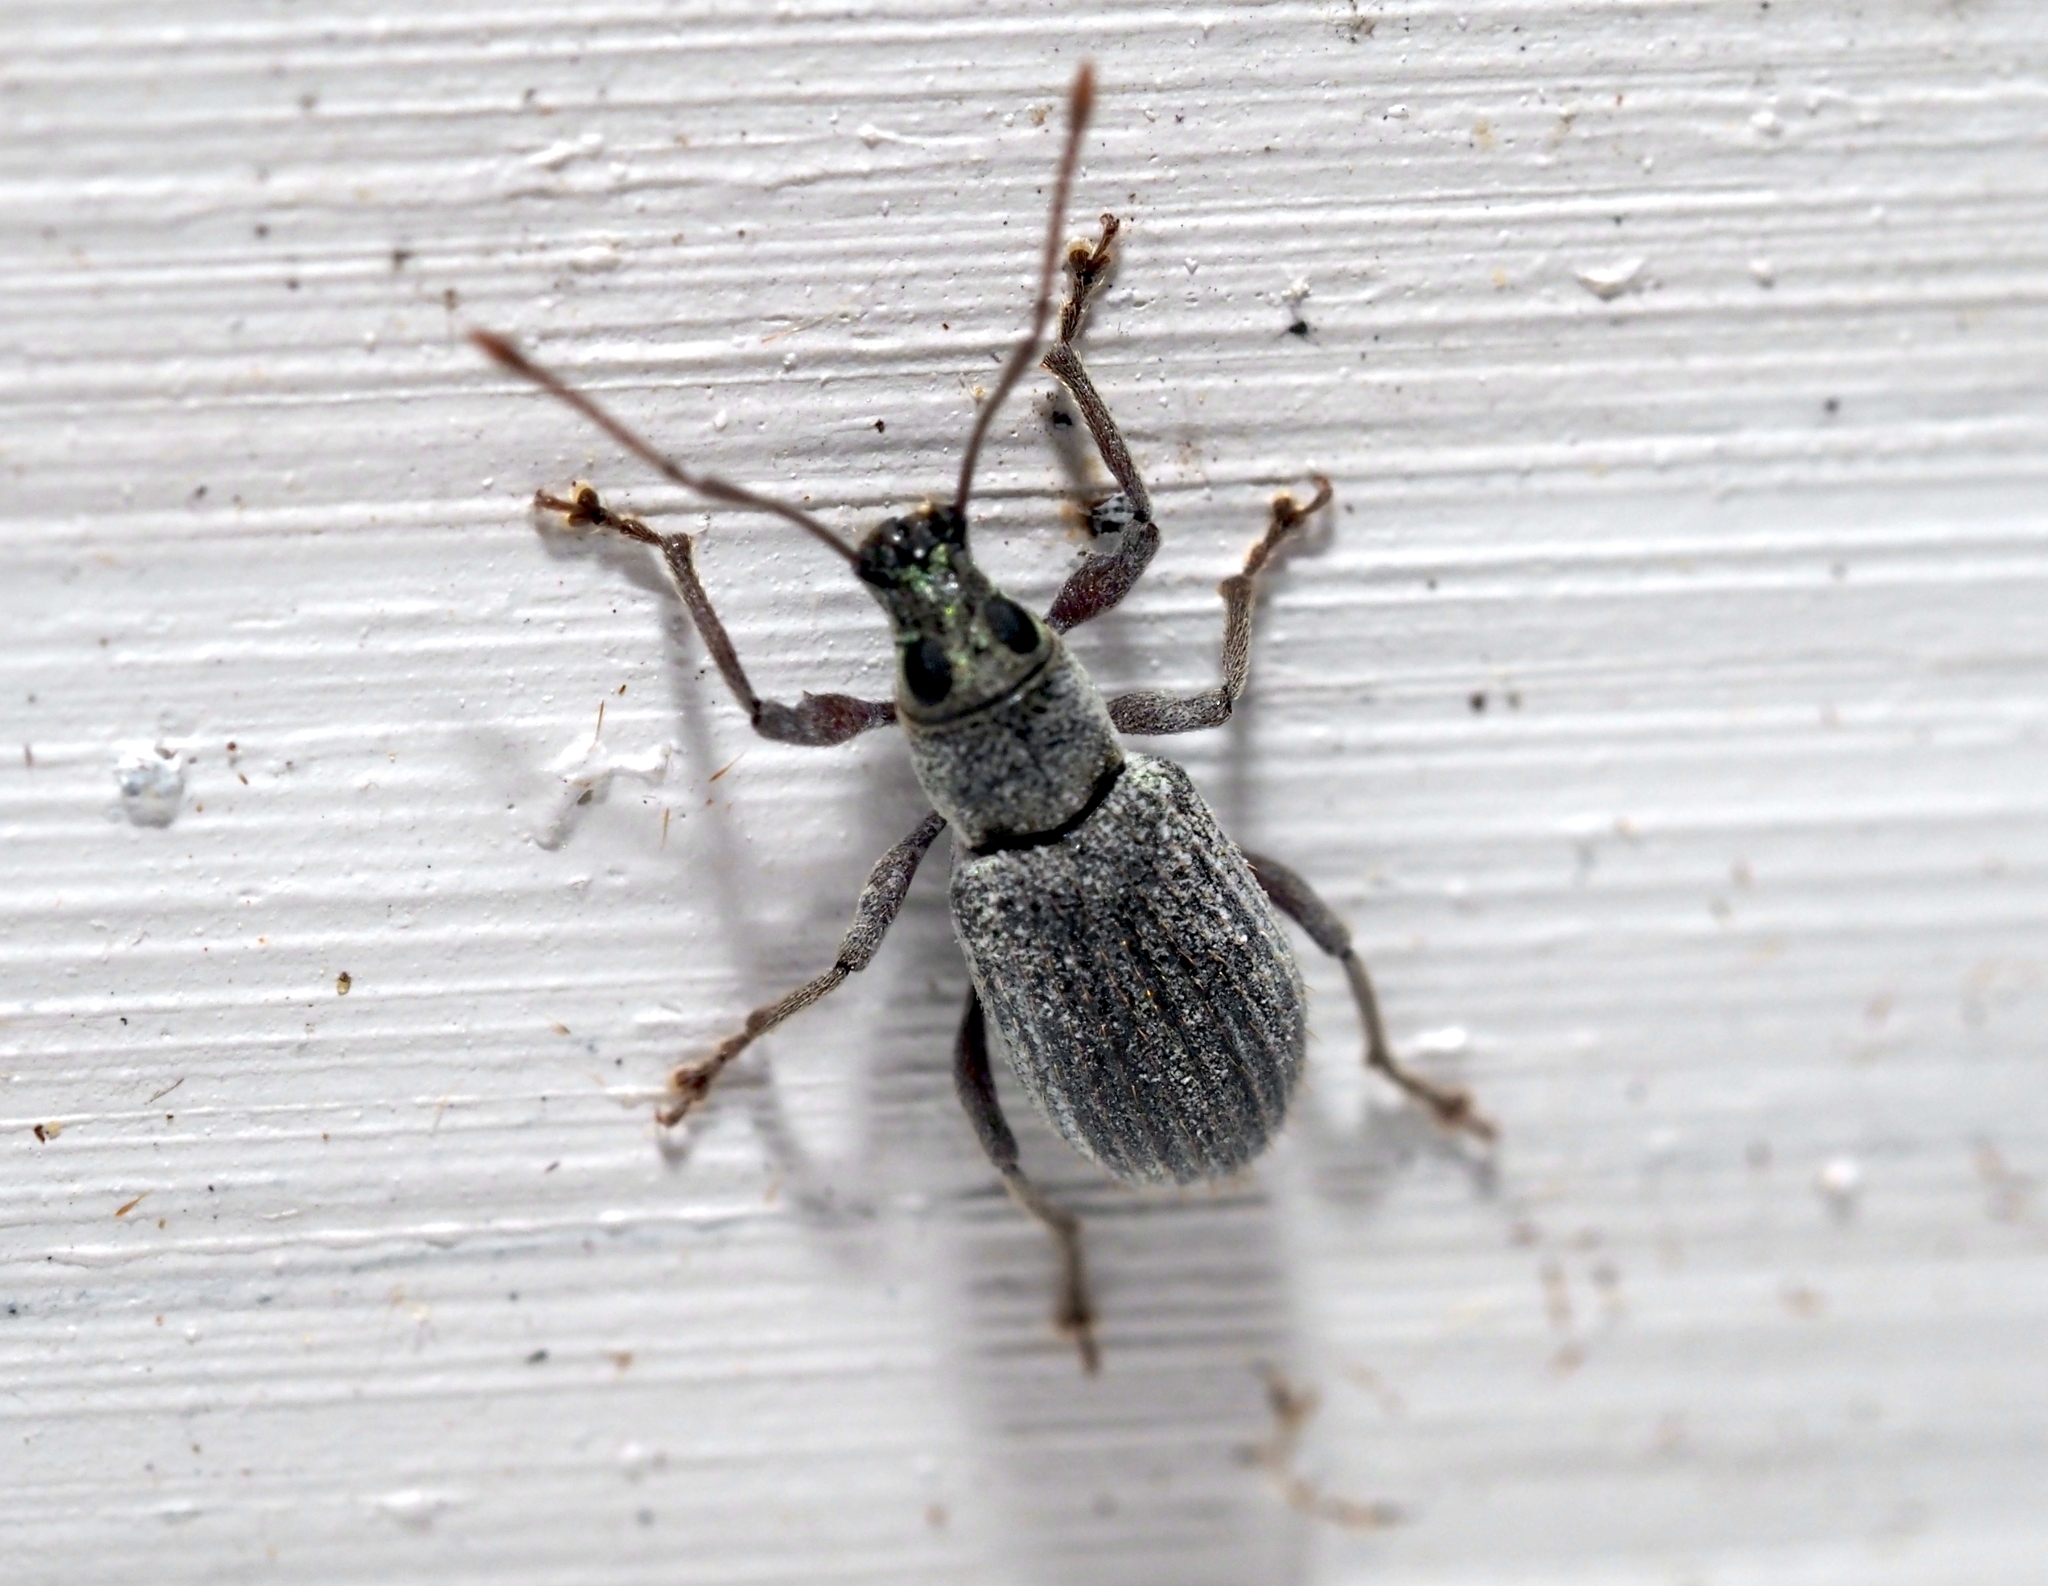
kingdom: Animalia
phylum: Arthropoda
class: Insecta
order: Coleoptera
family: Curculionidae
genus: Cyrtepistomus
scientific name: Cyrtepistomus castaneus
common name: Weevil
